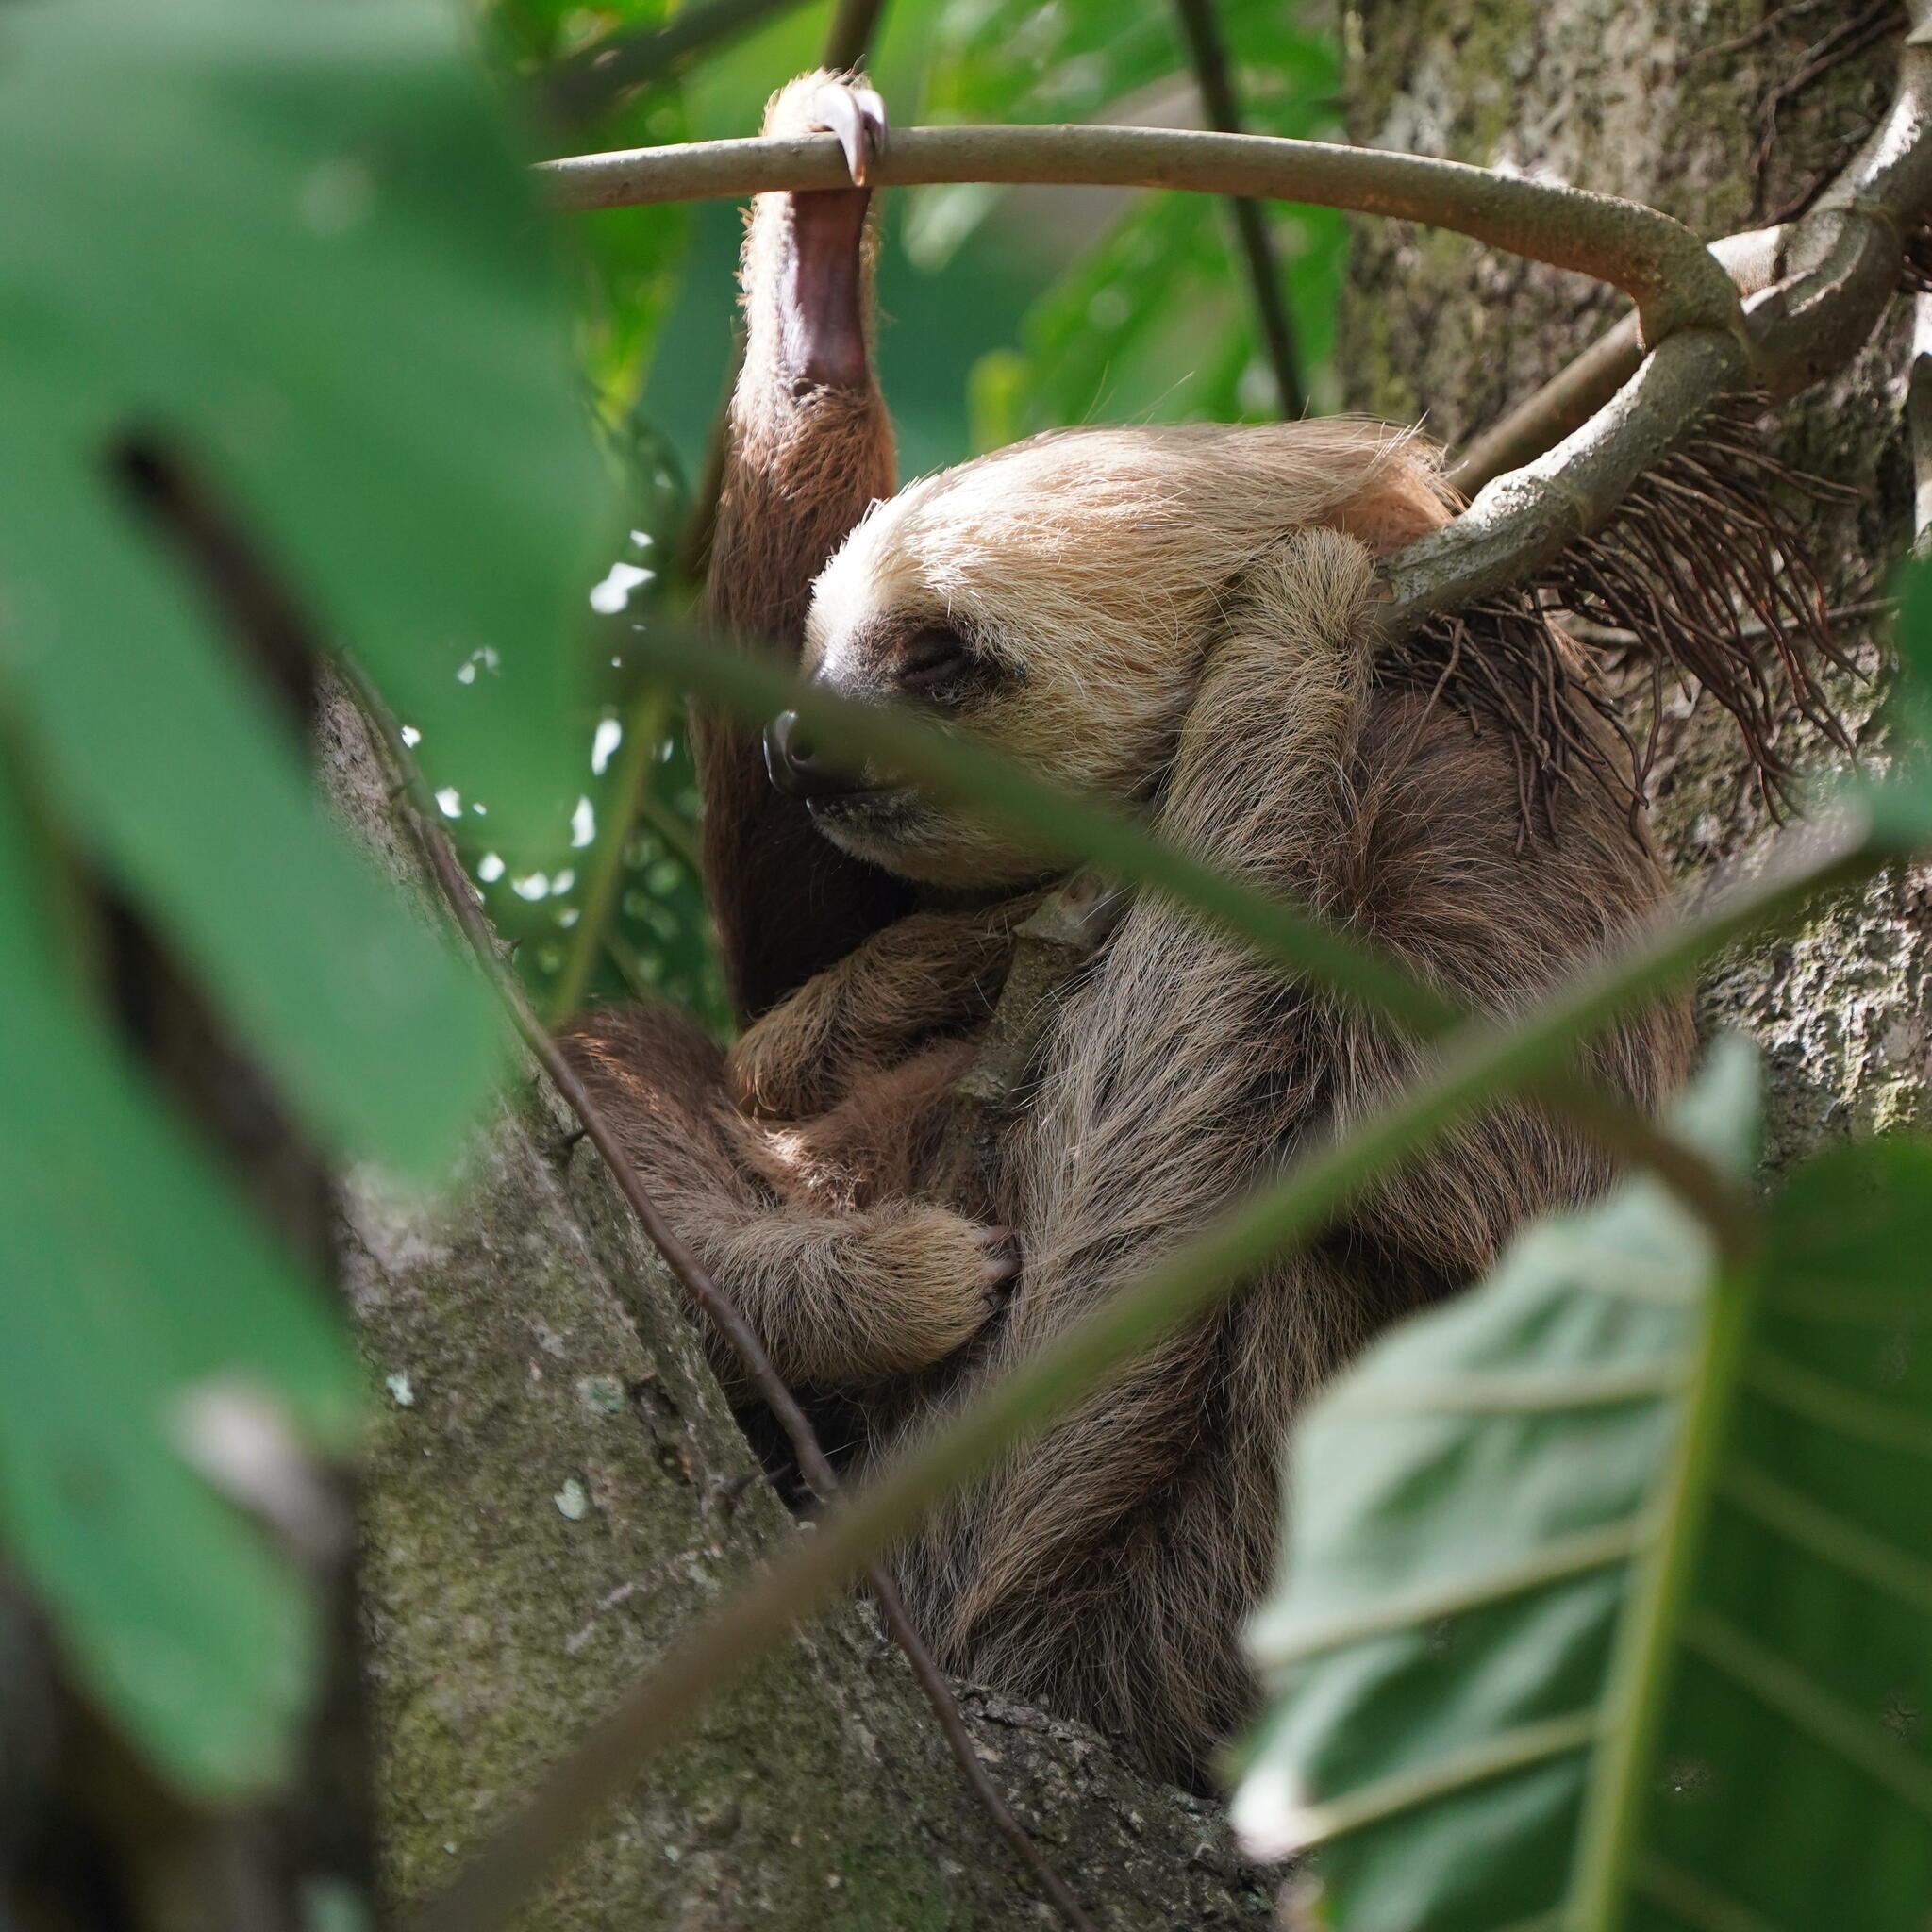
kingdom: Animalia
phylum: Chordata
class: Mammalia
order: Pilosa
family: Megalonychidae
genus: Choloepus
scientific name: Choloepus hoffmanni
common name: Hoffmann's two-toed sloth
